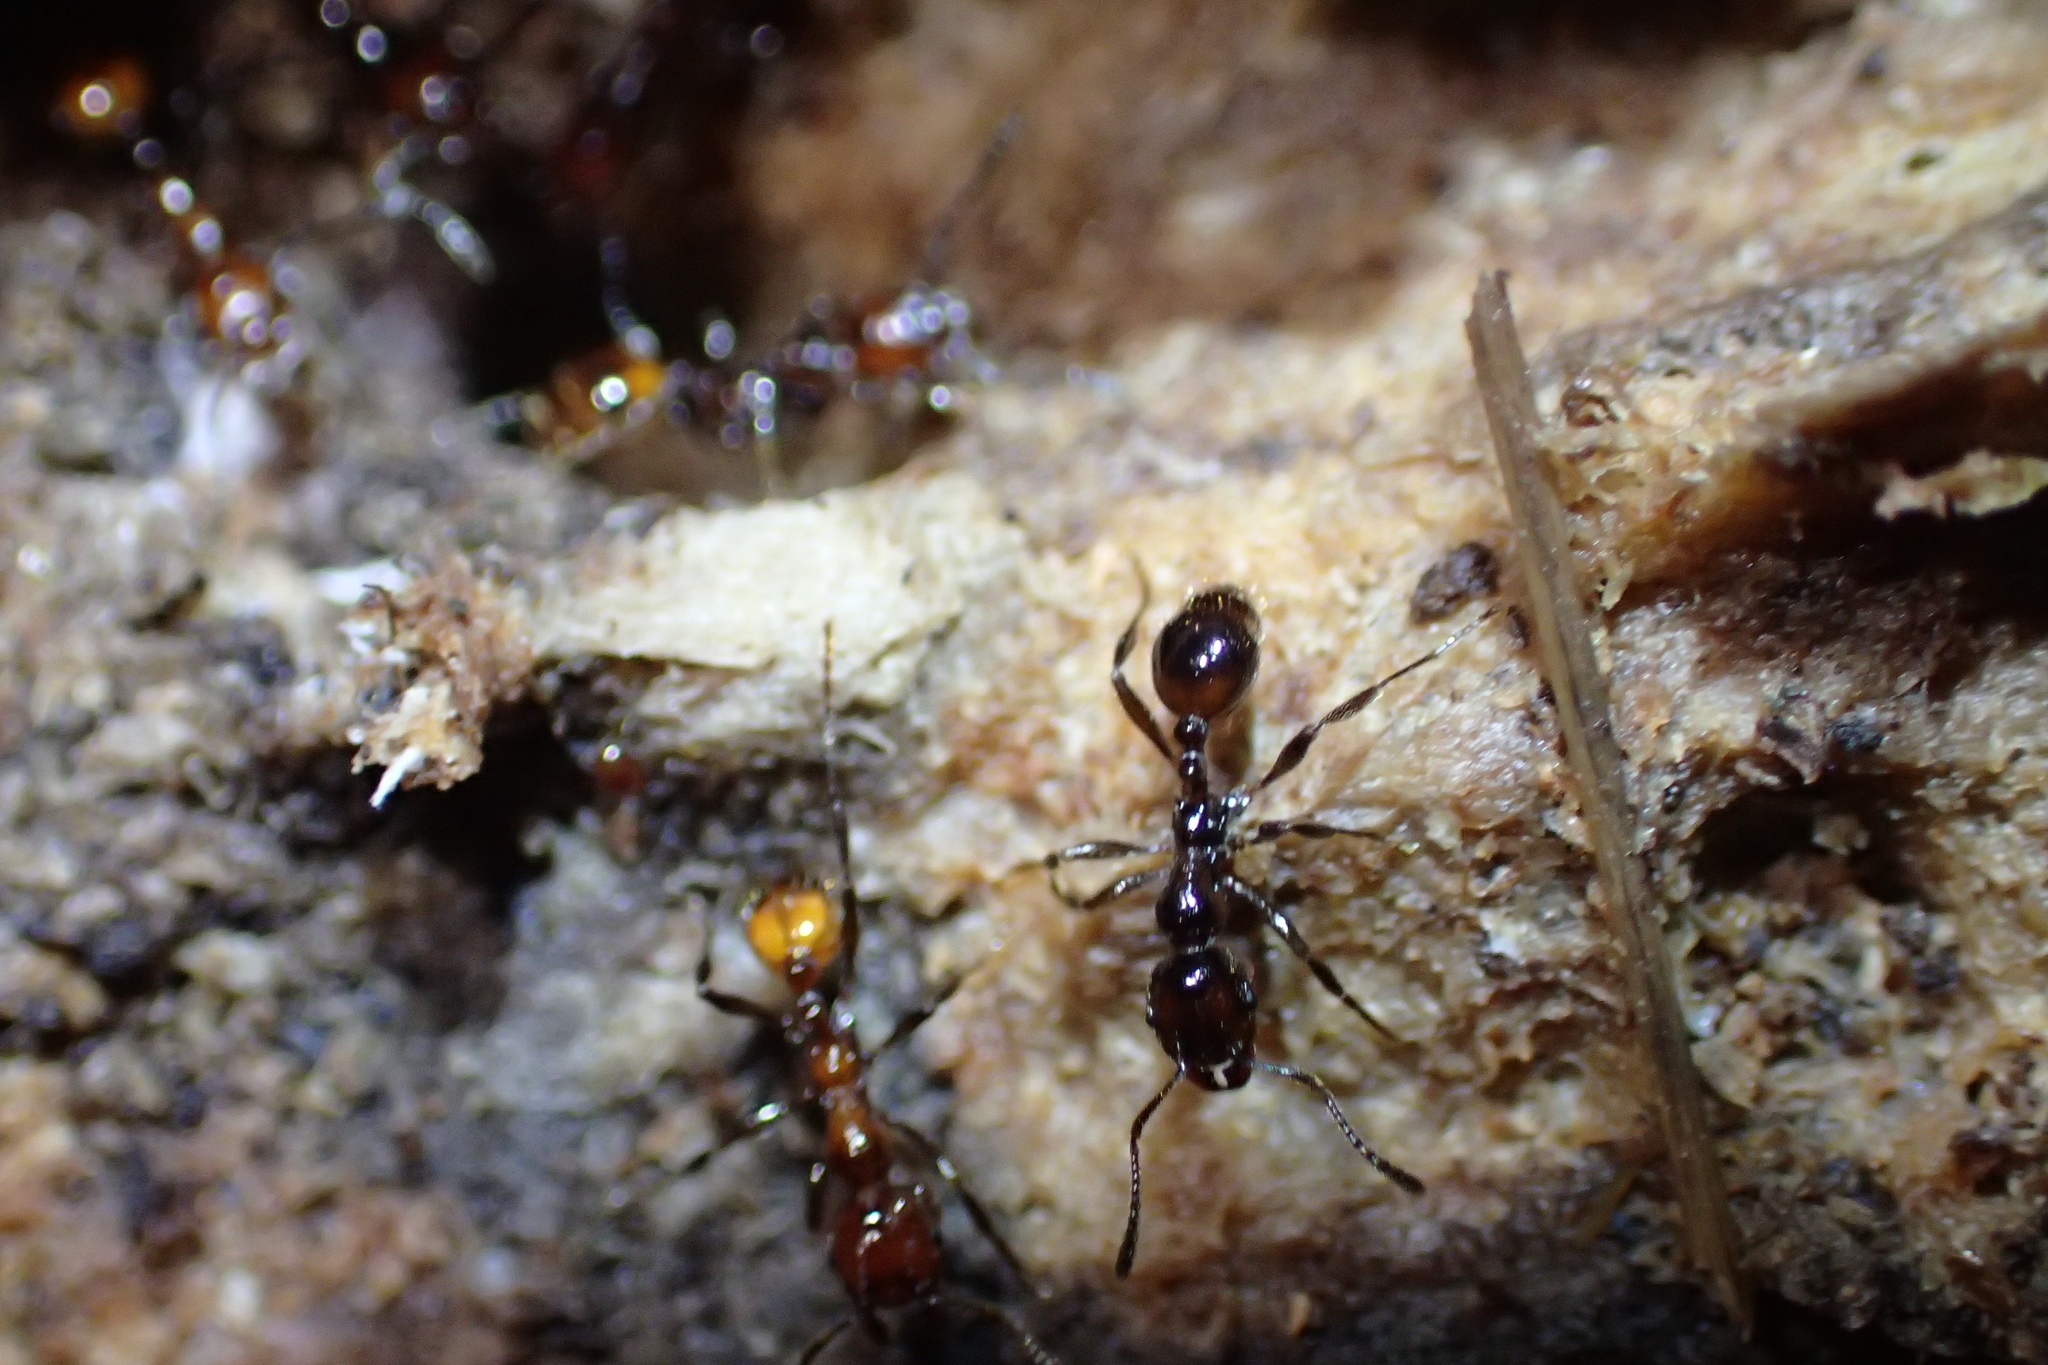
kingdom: Animalia
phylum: Arthropoda
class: Insecta
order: Hymenoptera
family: Formicidae
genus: Monomorium
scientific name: Monomorium antarcticum
